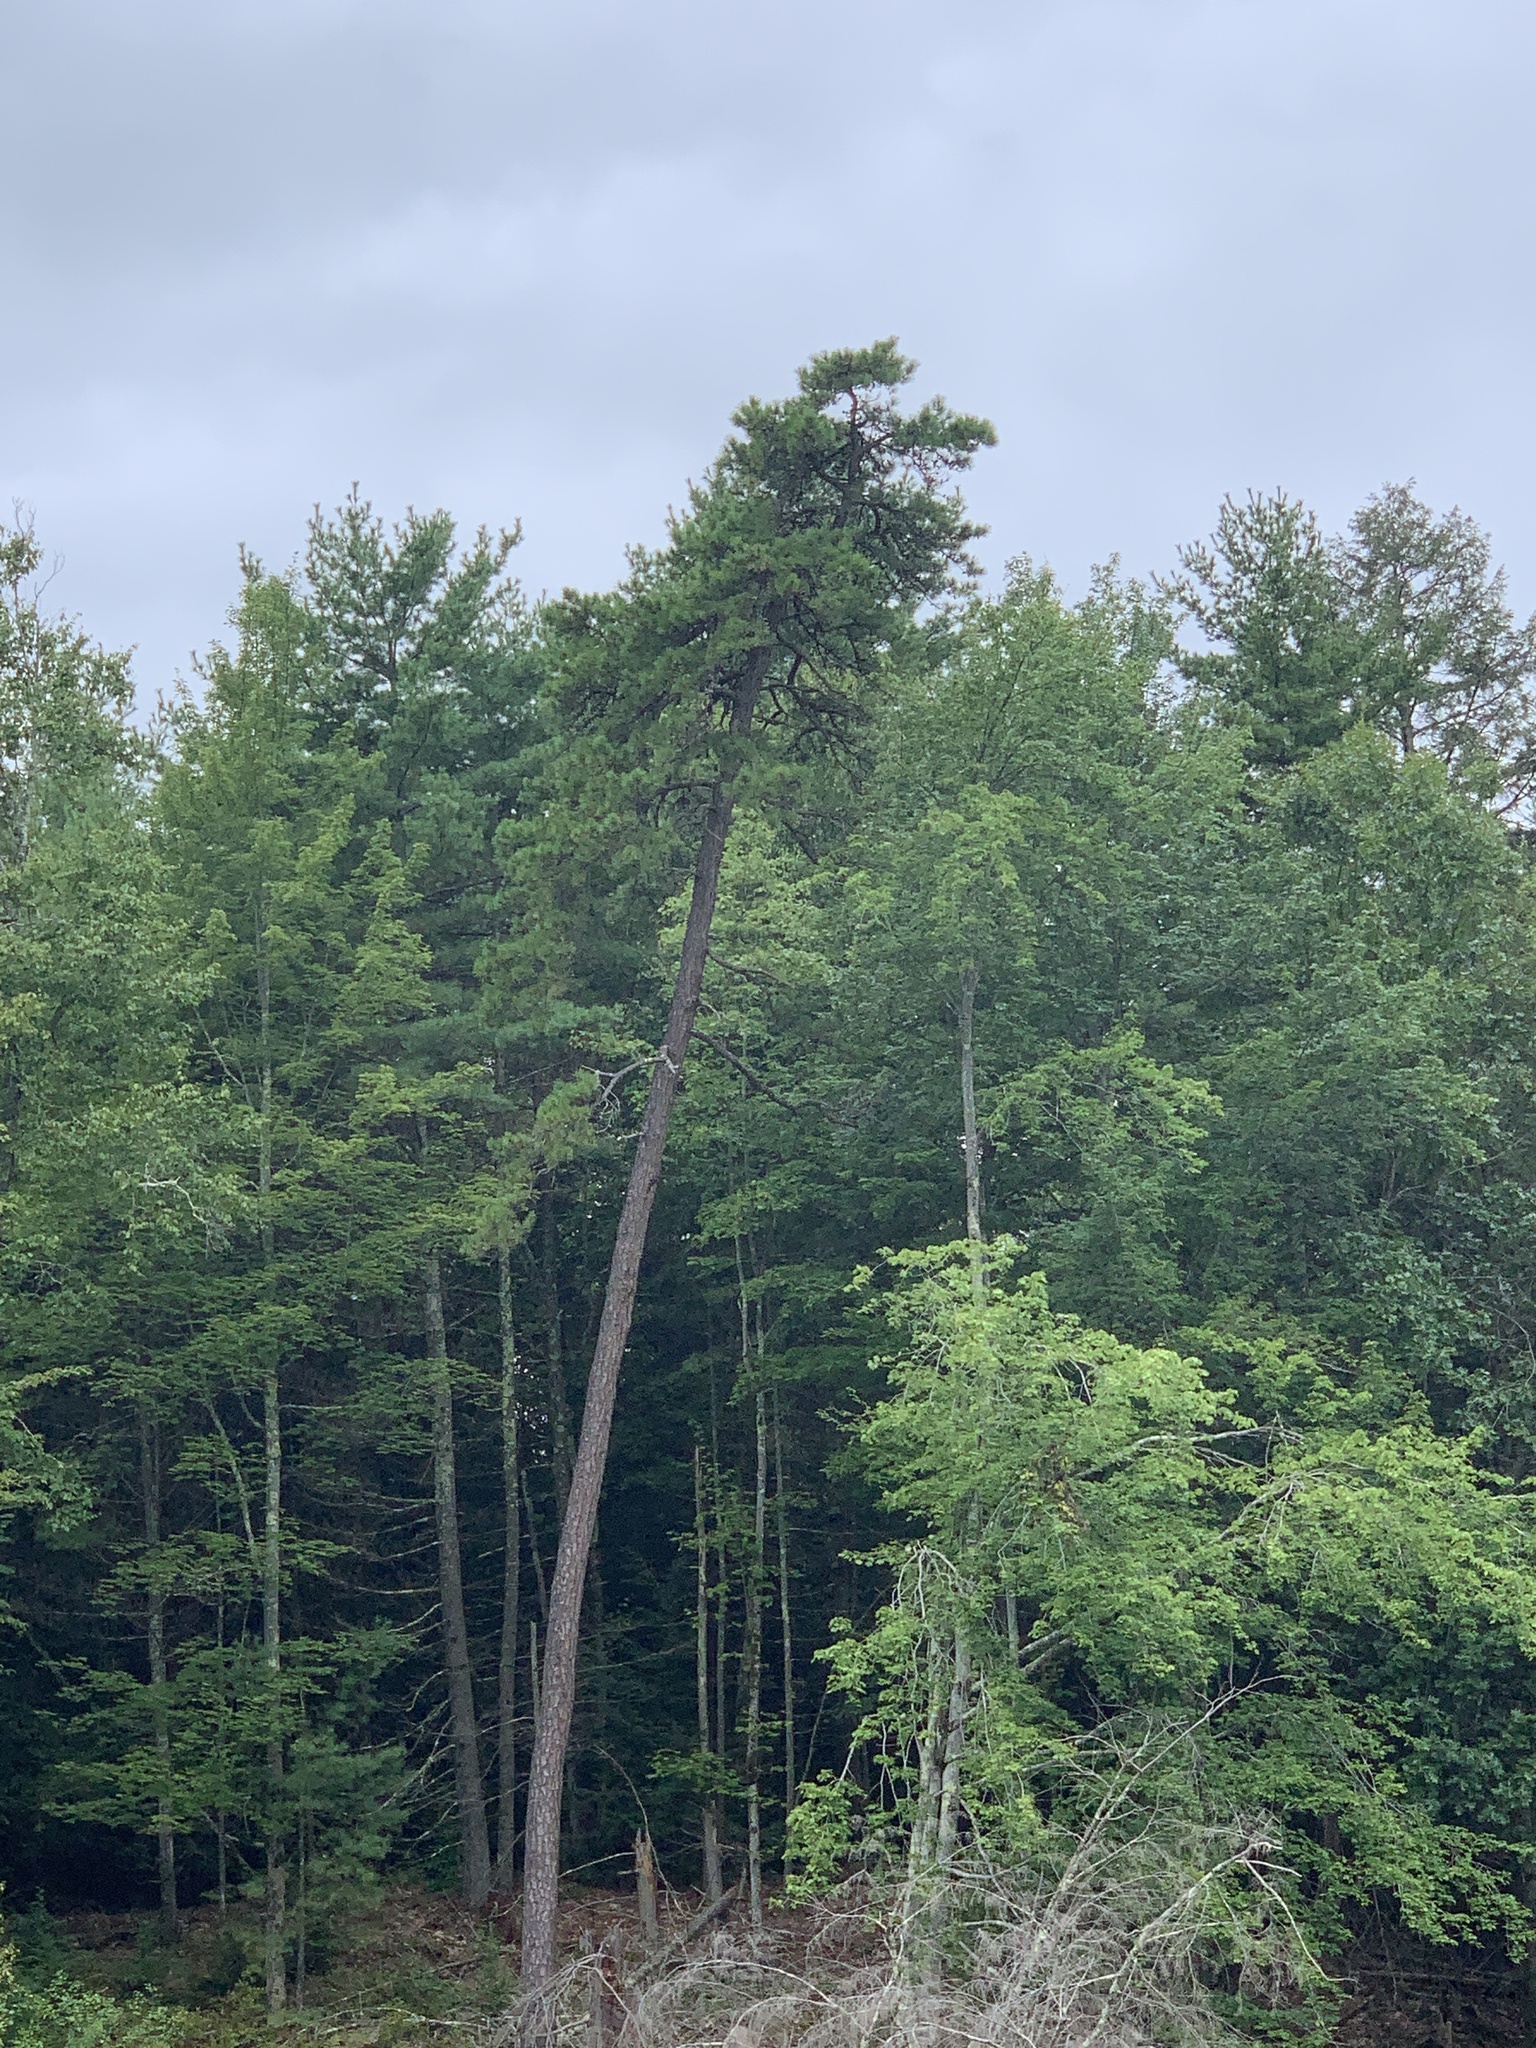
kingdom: Plantae
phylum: Tracheophyta
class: Pinopsida
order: Pinales
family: Pinaceae
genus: Pinus
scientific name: Pinus rigida
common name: Pitch pine
